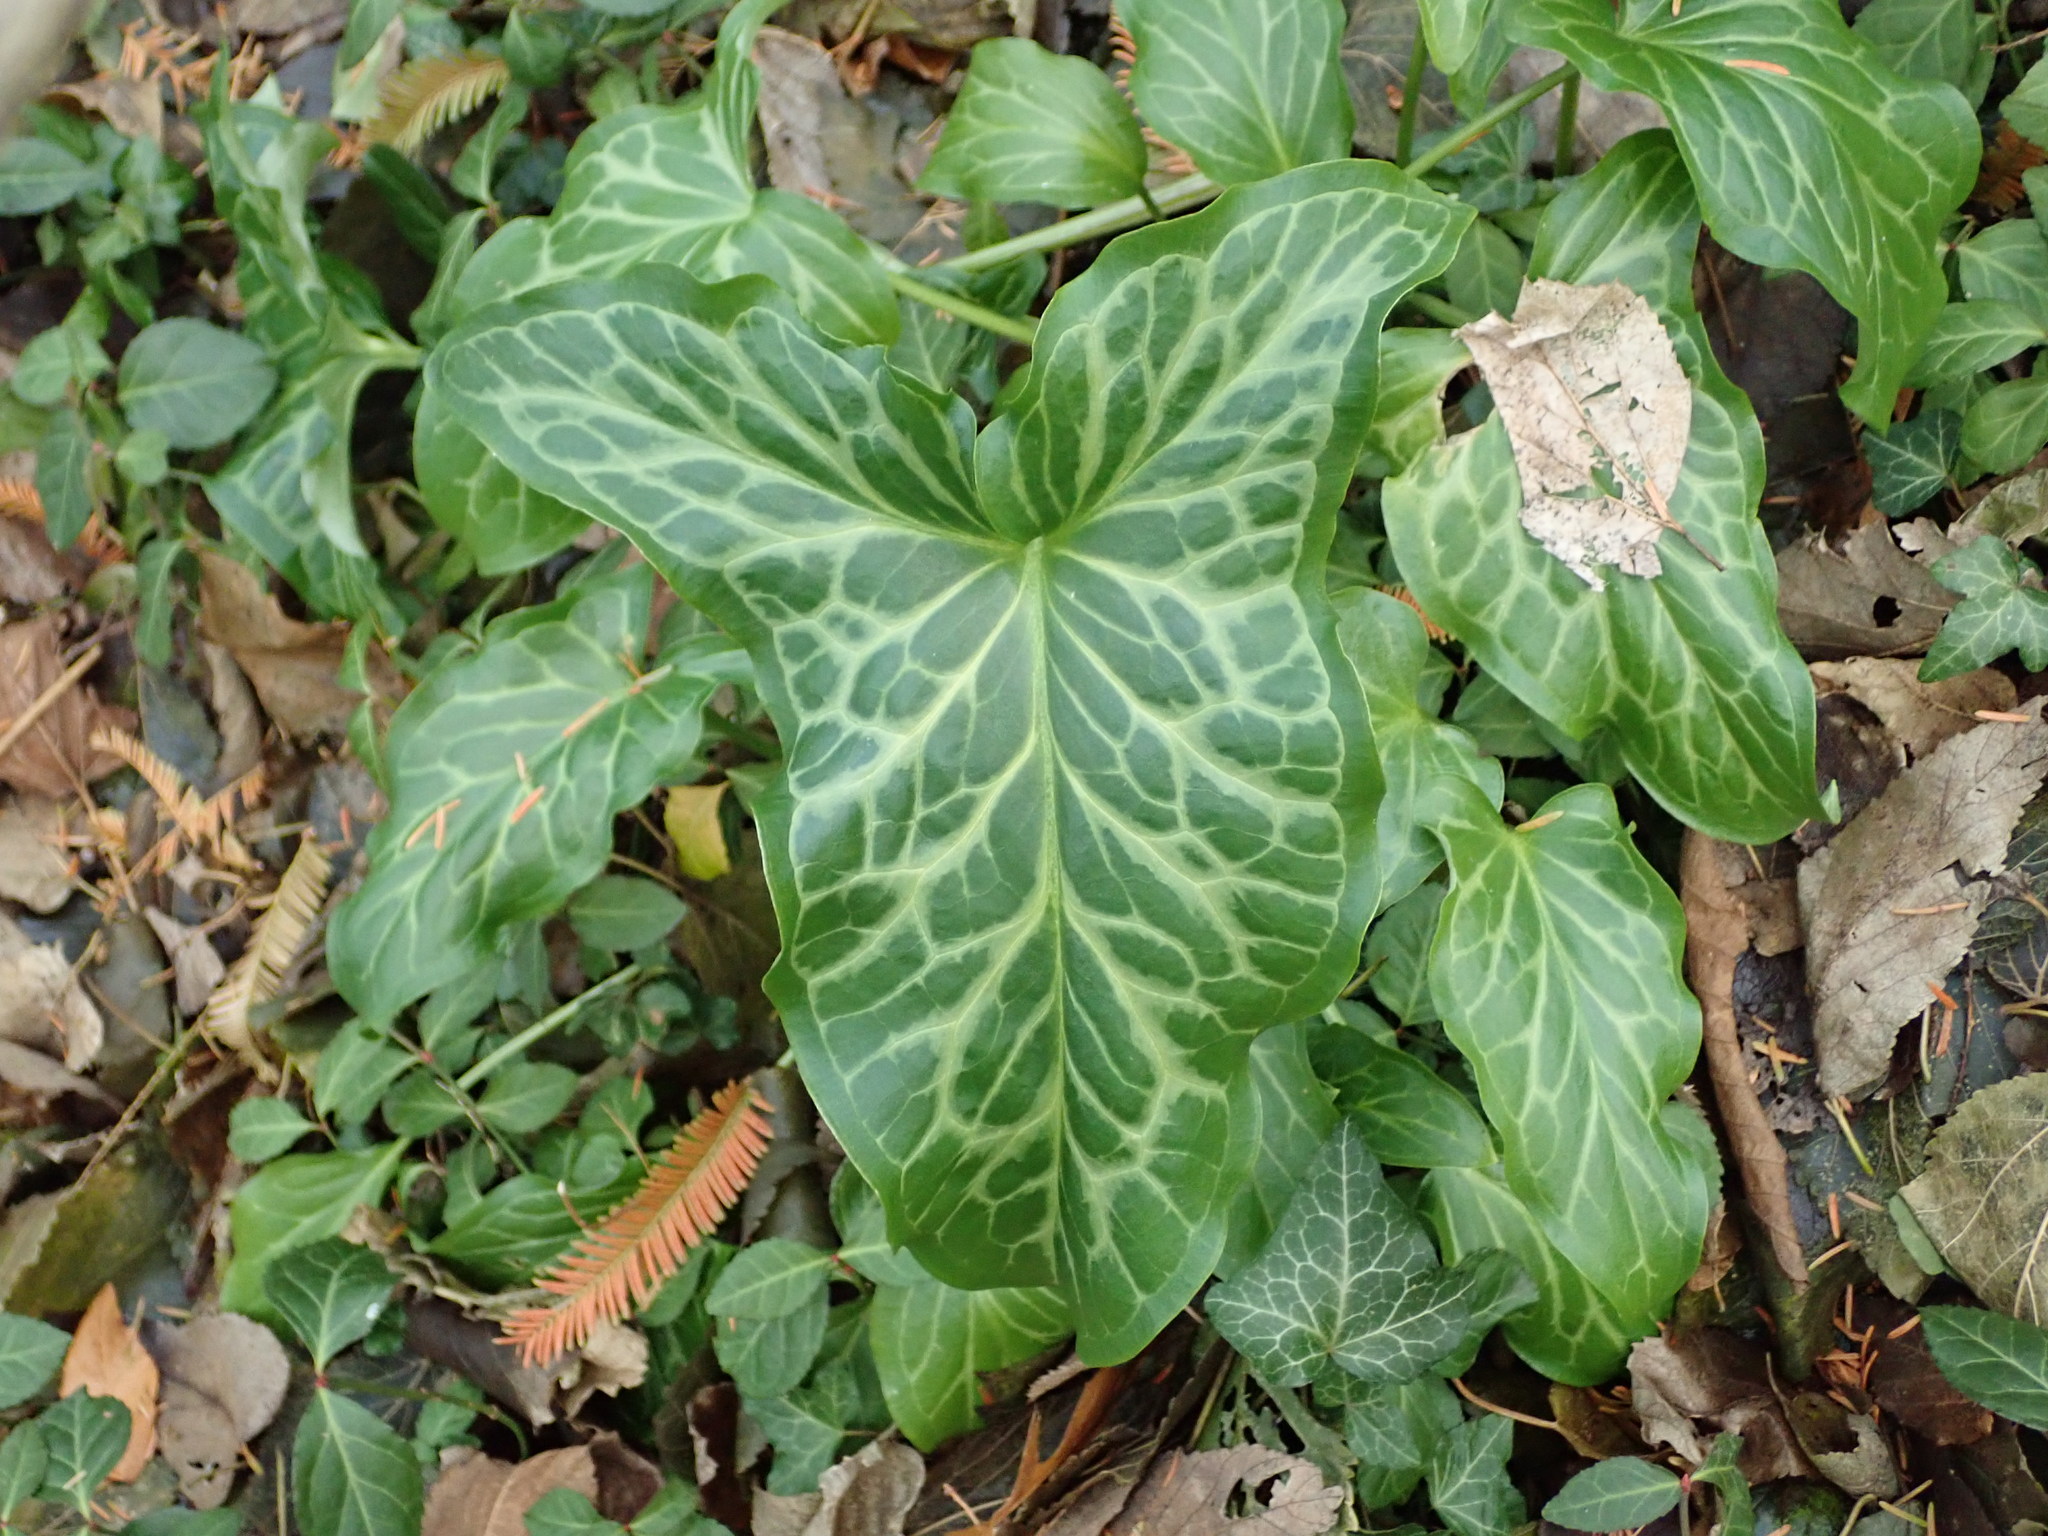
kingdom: Plantae
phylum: Tracheophyta
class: Liliopsida
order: Alismatales
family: Araceae
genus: Arum
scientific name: Arum italicum
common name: Italian lords-and-ladies
